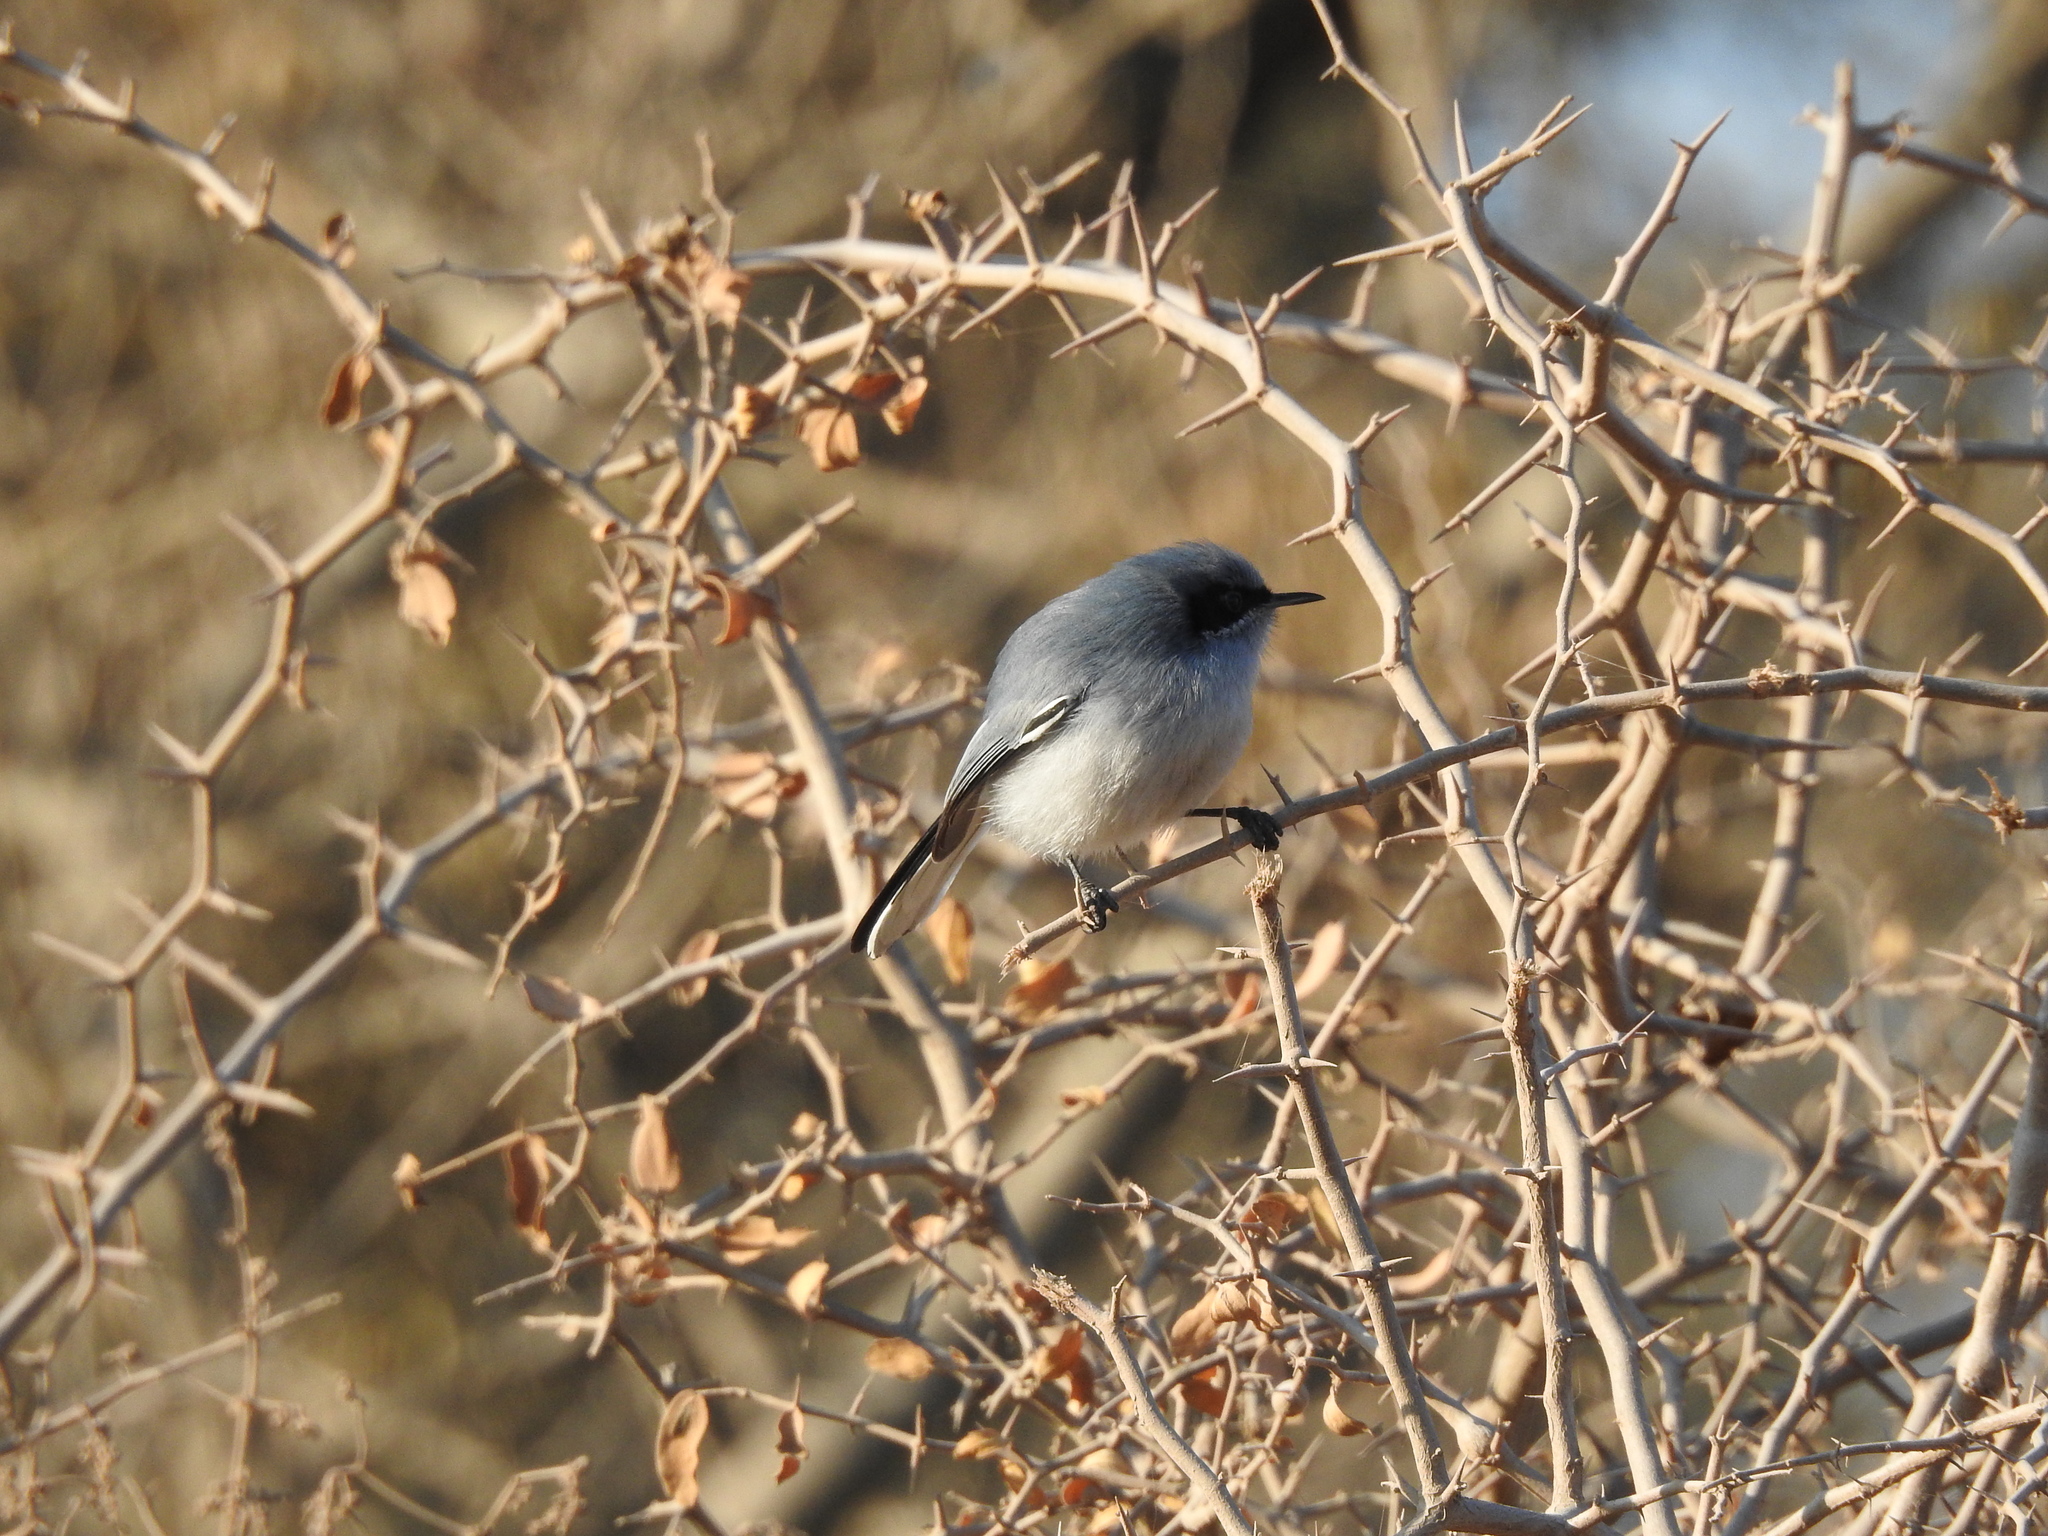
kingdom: Animalia
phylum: Chordata
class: Aves
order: Passeriformes
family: Polioptilidae
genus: Polioptila
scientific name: Polioptila dumicola
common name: Masked gnatcatcher
